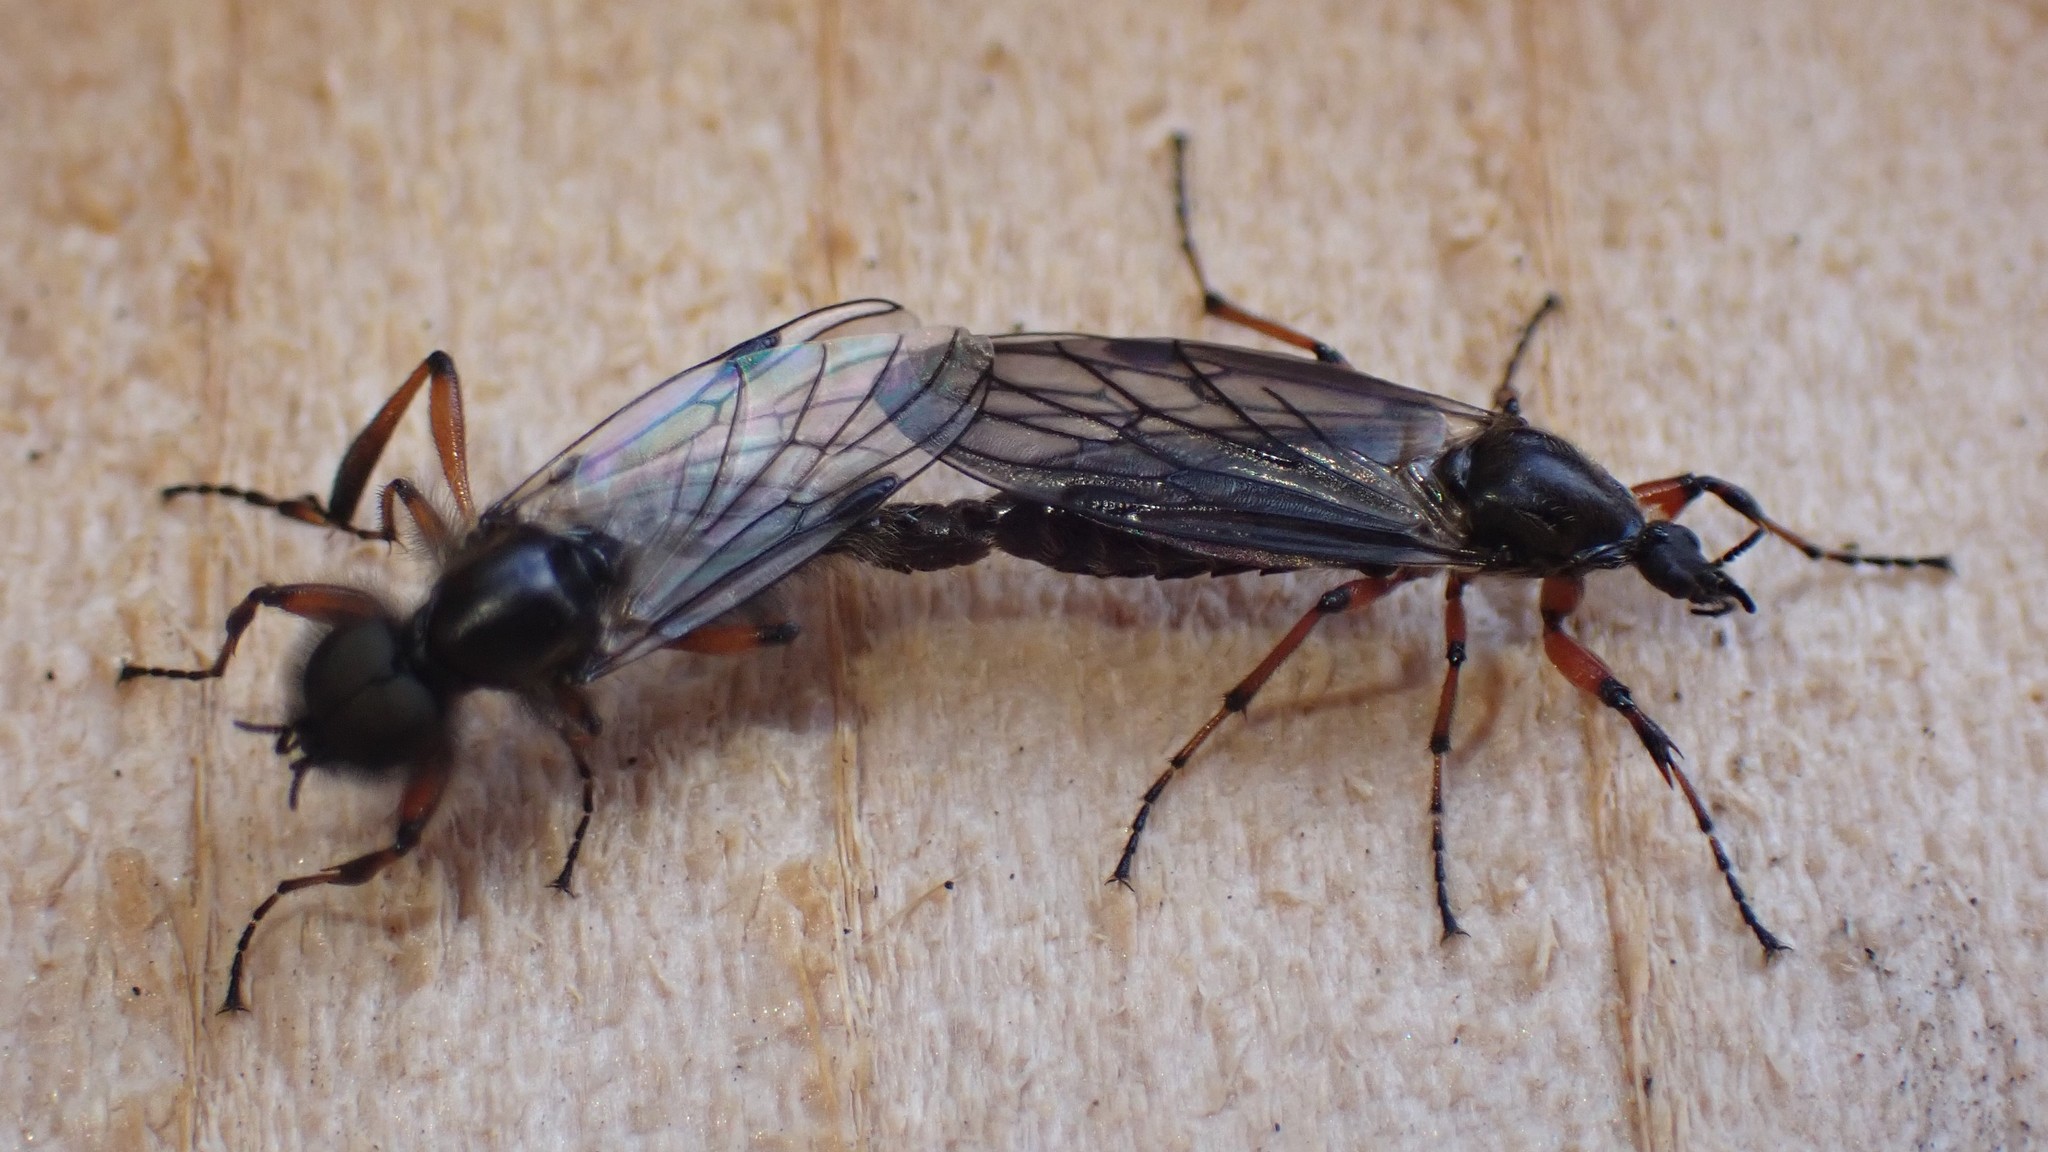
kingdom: Animalia
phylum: Arthropoda
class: Insecta
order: Diptera
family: Bibionidae
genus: Bibio
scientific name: Bibio
